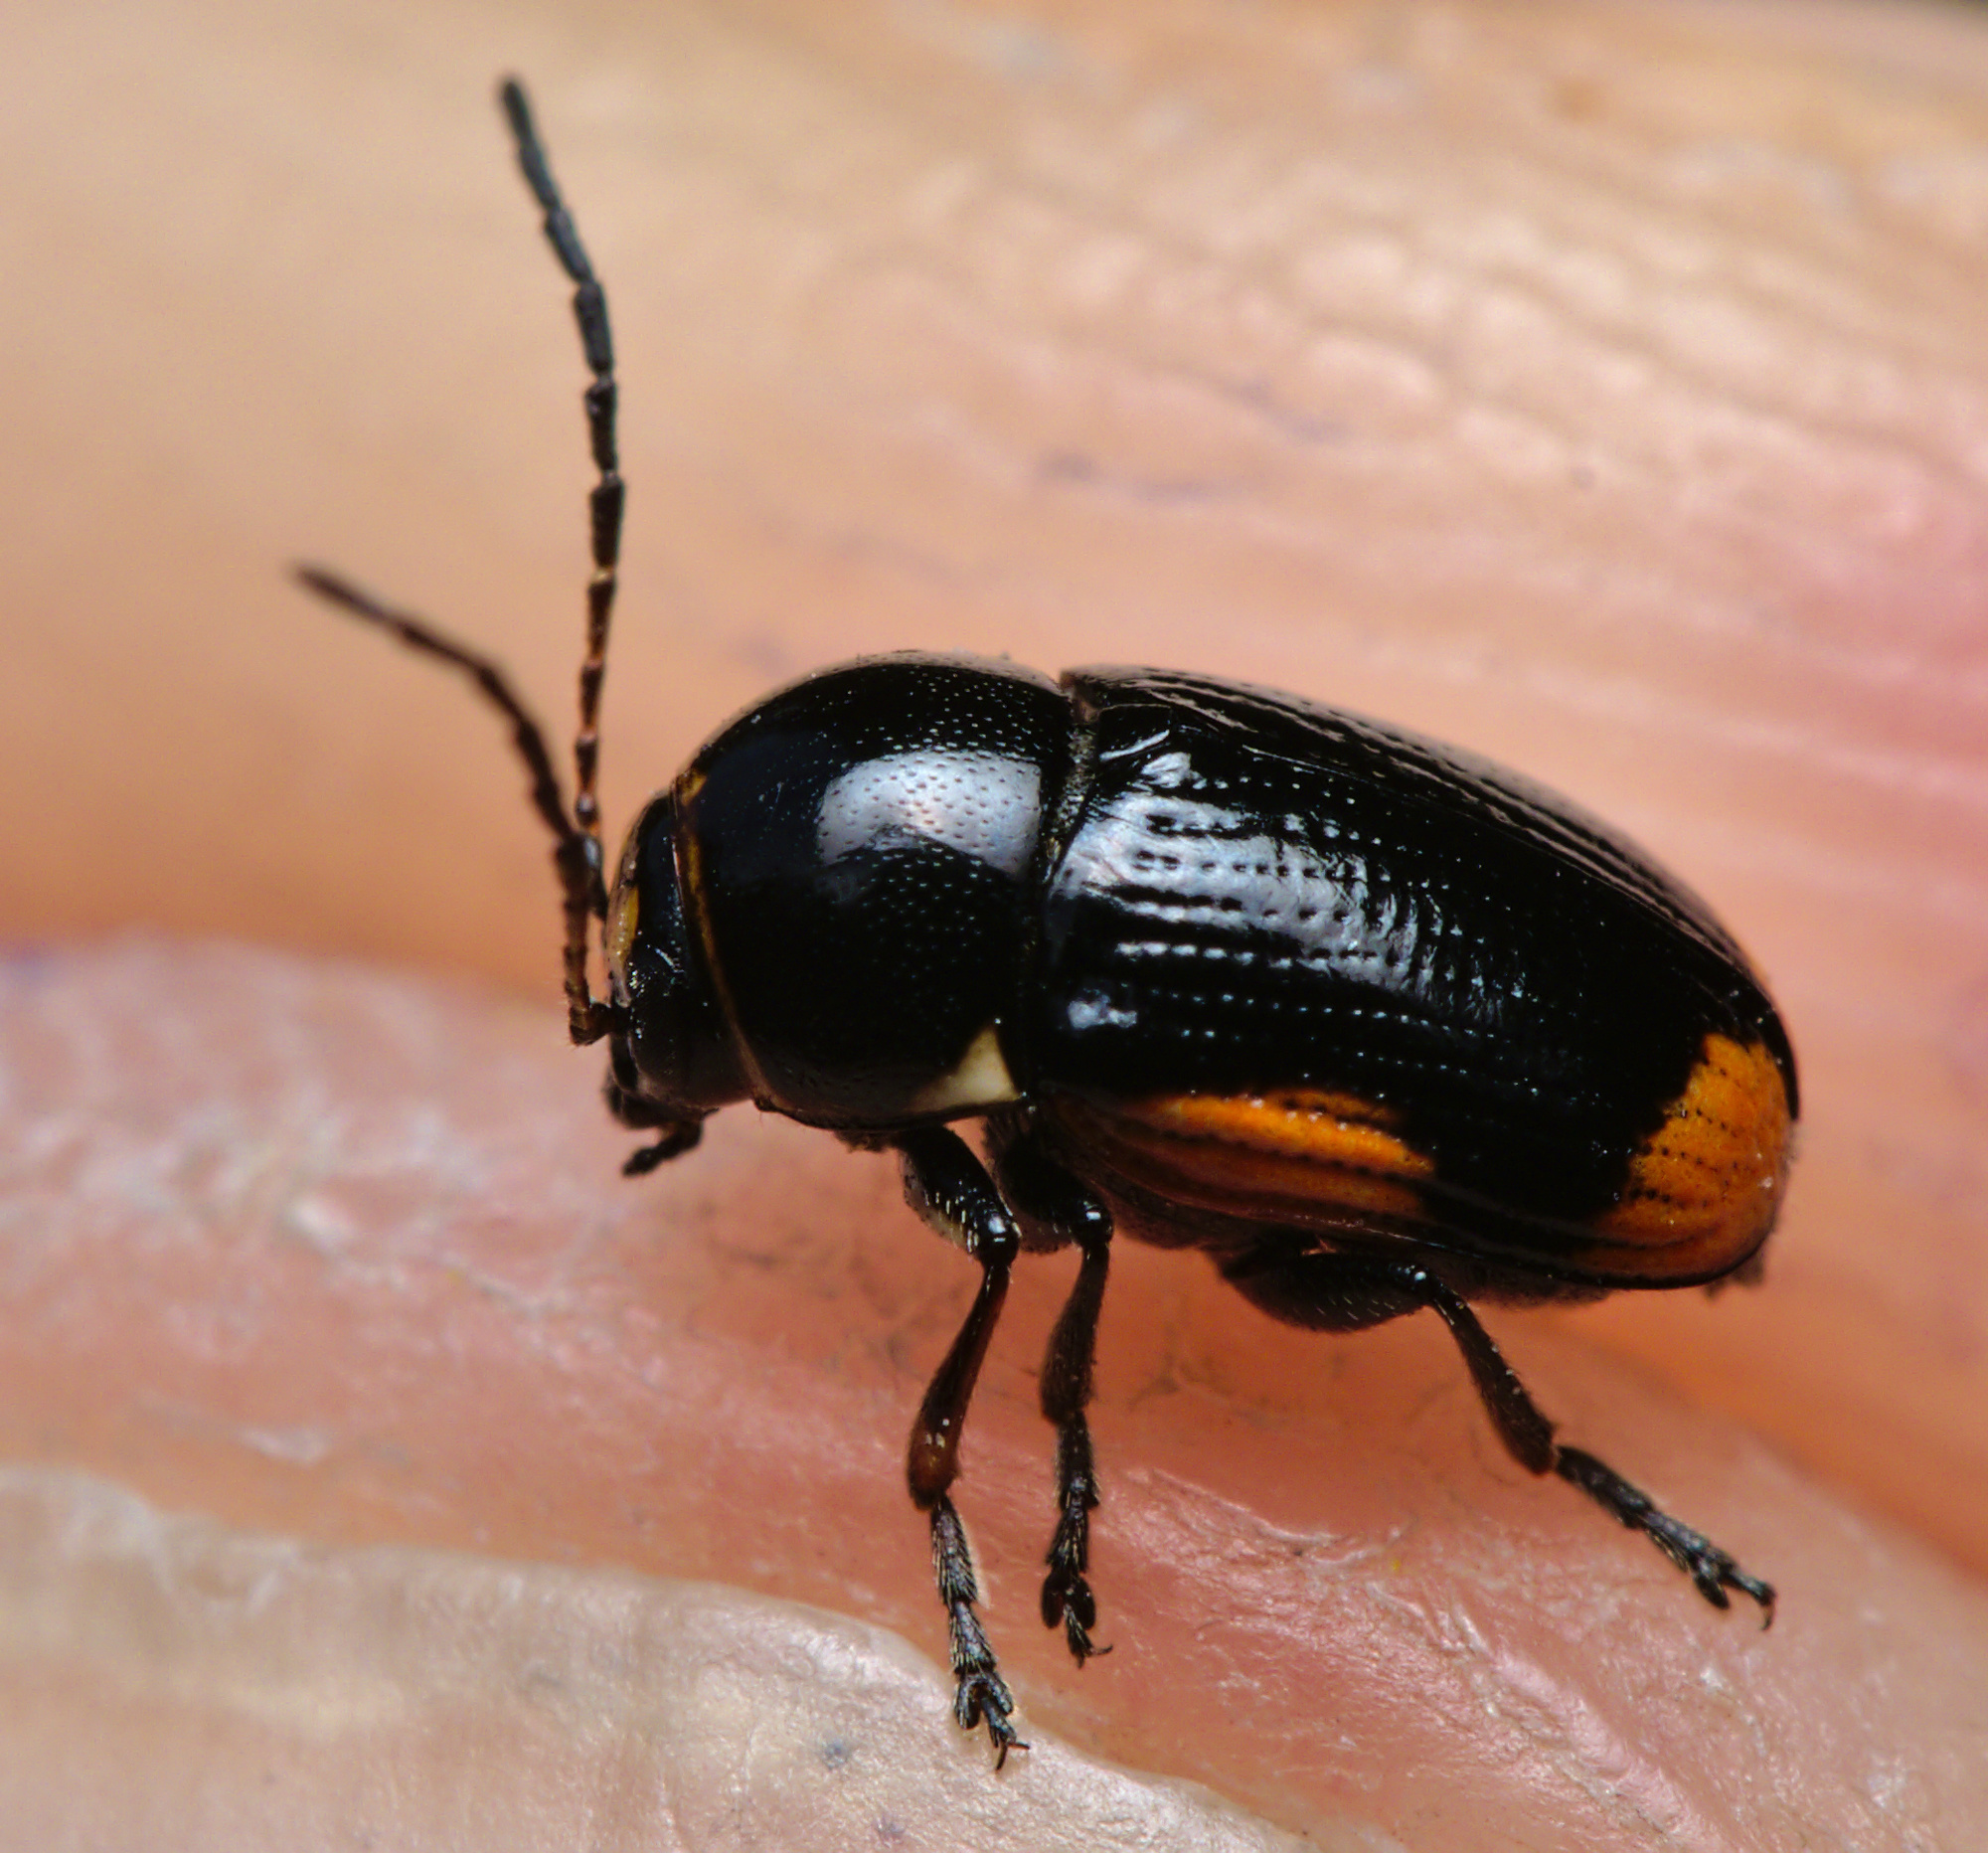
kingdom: Animalia
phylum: Arthropoda
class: Insecta
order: Coleoptera
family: Chrysomelidae
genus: Cryptocephalus
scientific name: Cryptocephalus moraei
